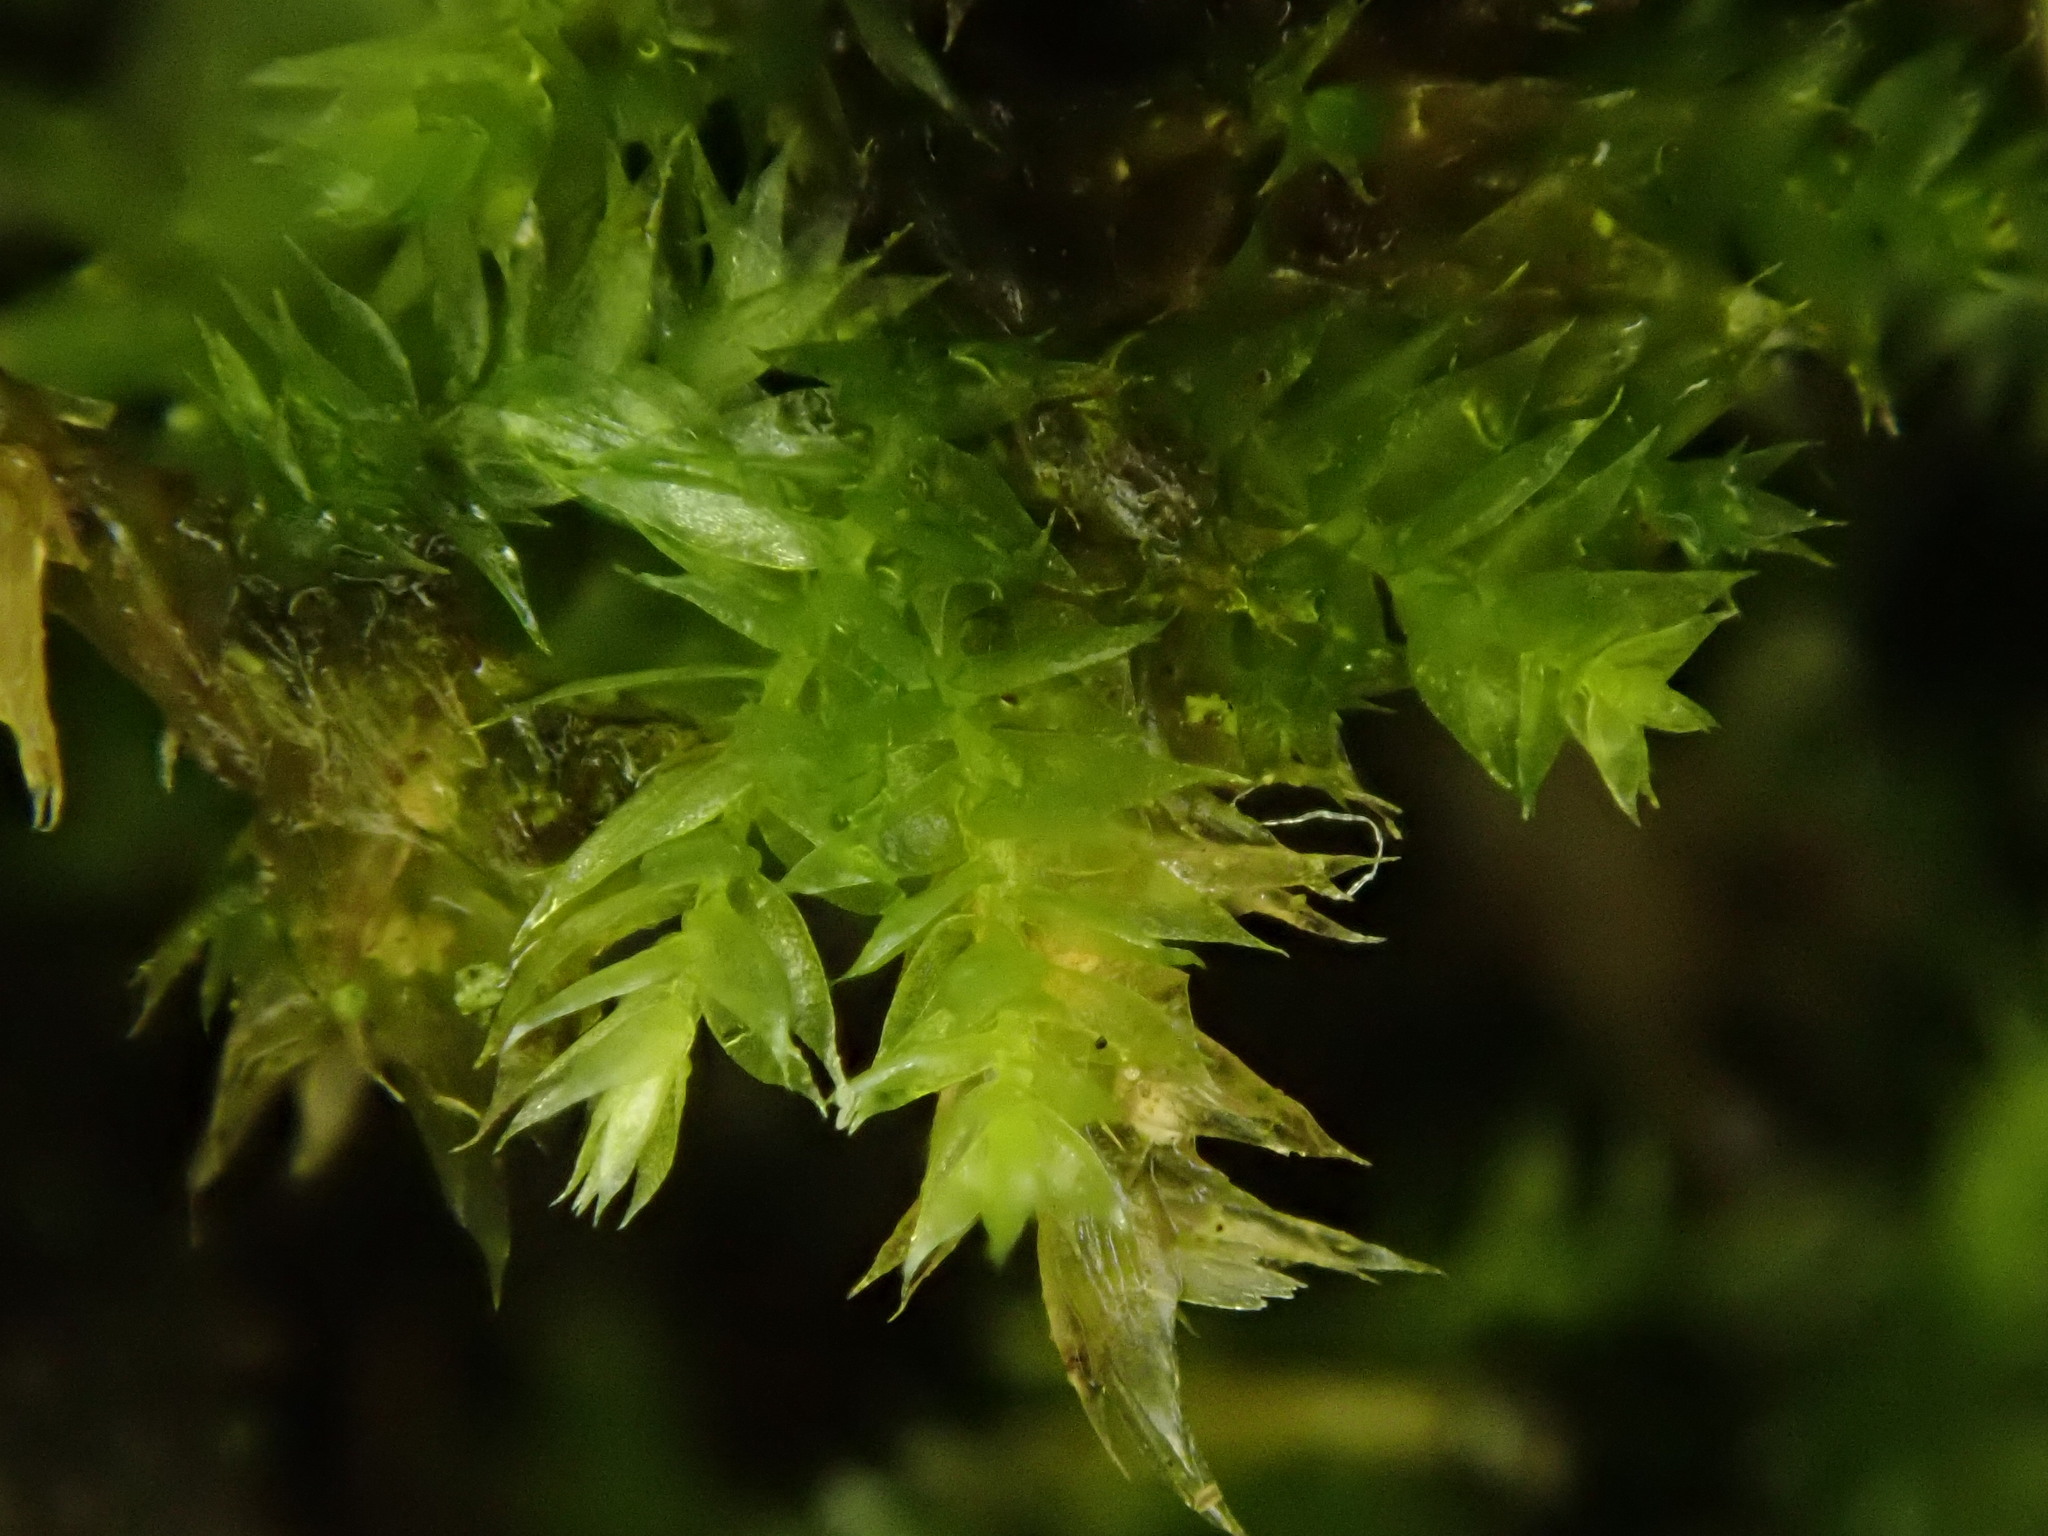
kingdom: Plantae
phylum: Bryophyta
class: Bryopsida
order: Hypnales
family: Brachytheciaceae
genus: Rhynchostegium
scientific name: Rhynchostegium confertum
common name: Clustered feather-moss
